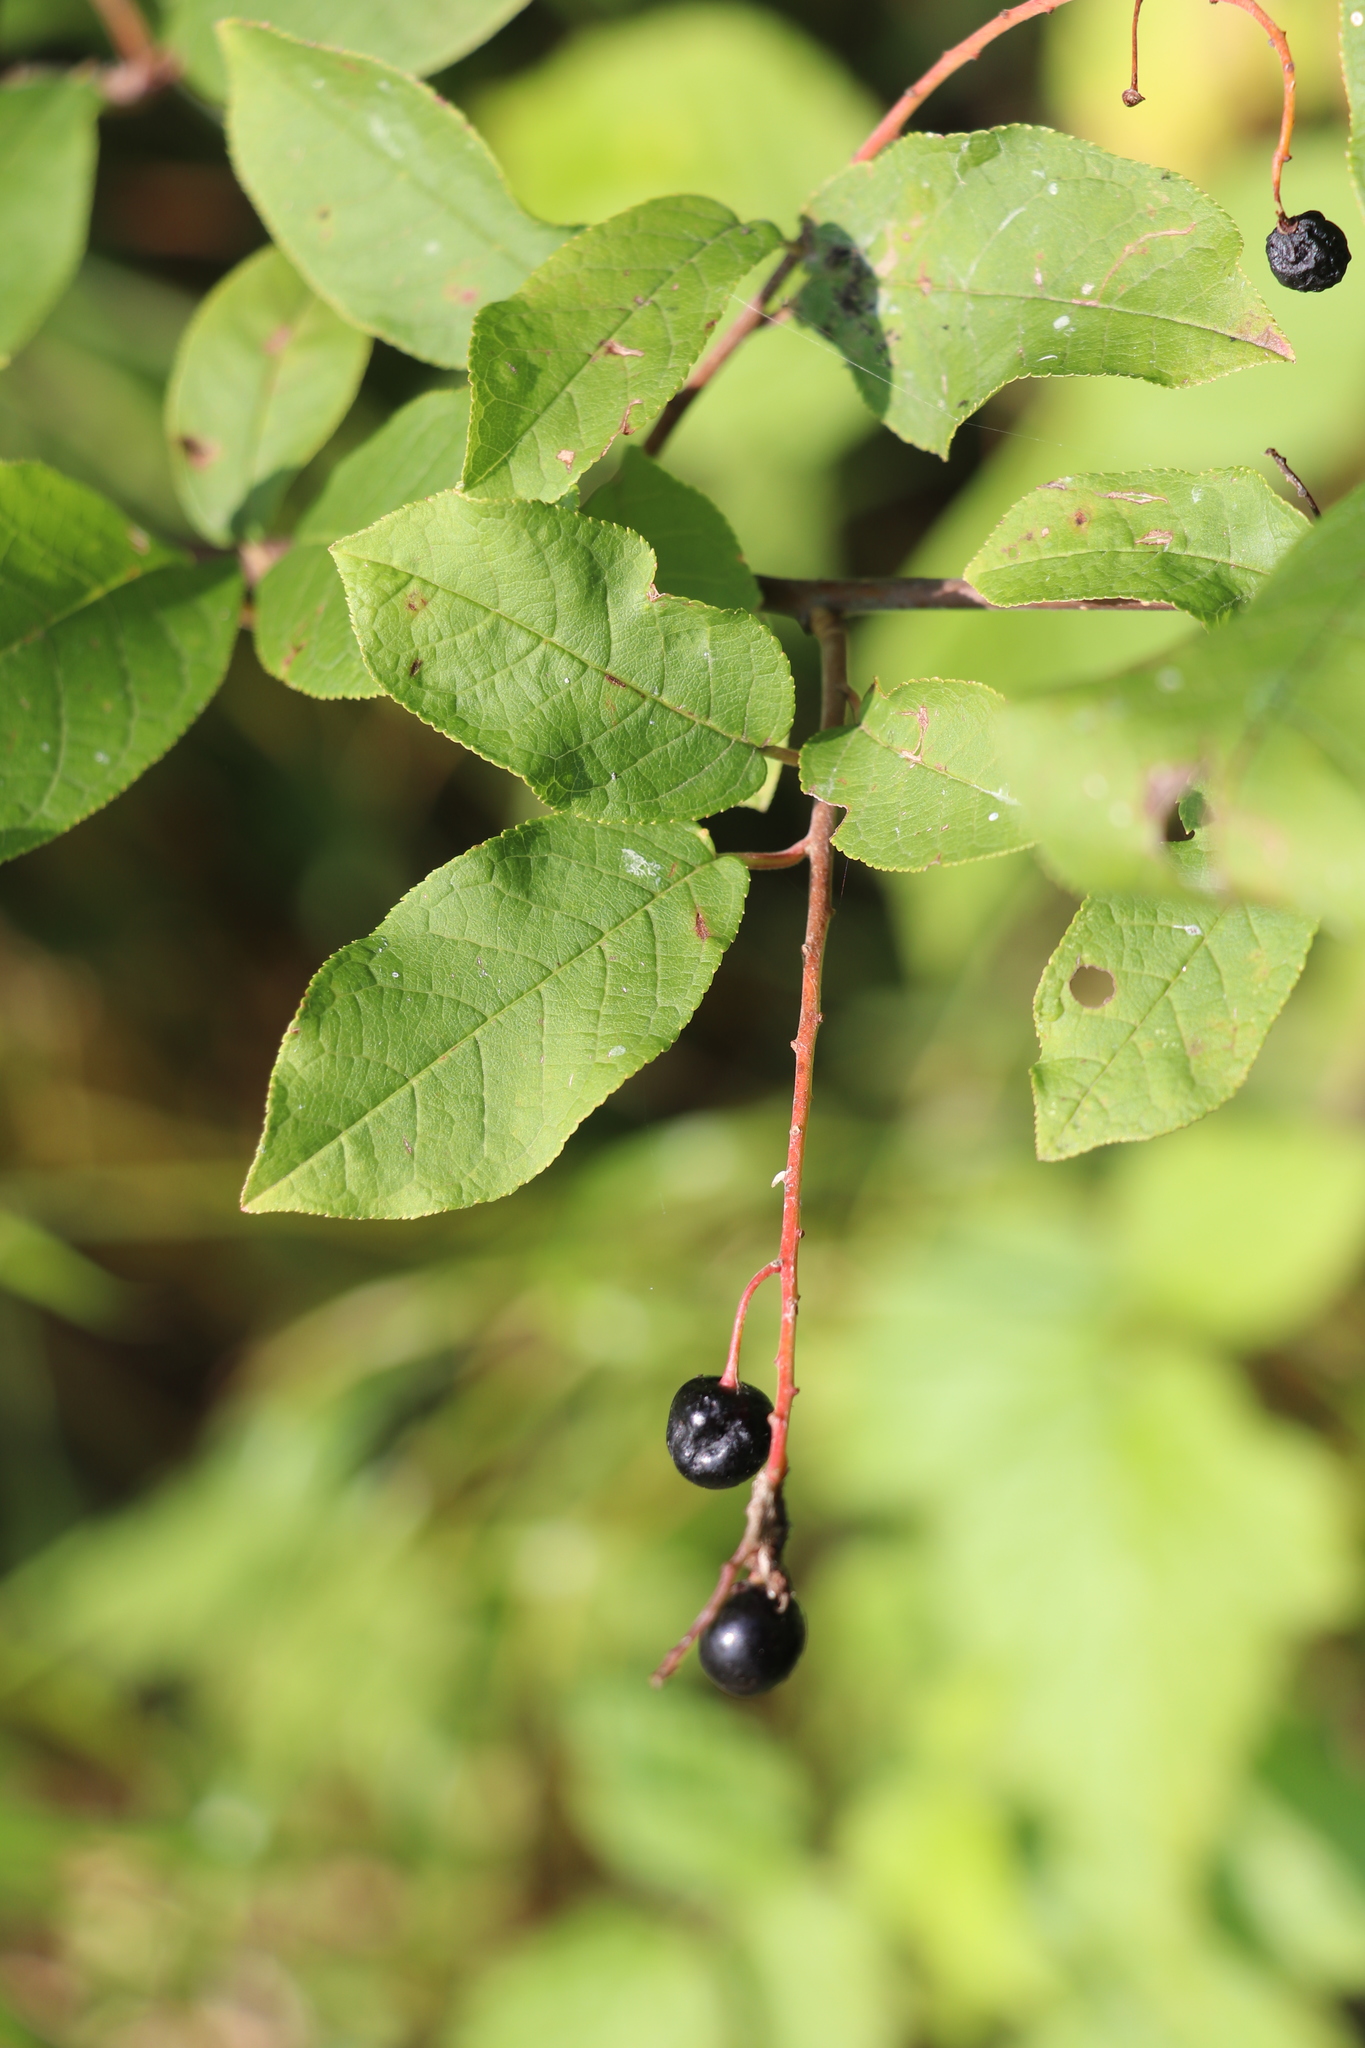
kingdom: Plantae
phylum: Tracheophyta
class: Magnoliopsida
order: Rosales
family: Rosaceae
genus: Prunus
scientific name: Prunus padus
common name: Bird cherry
